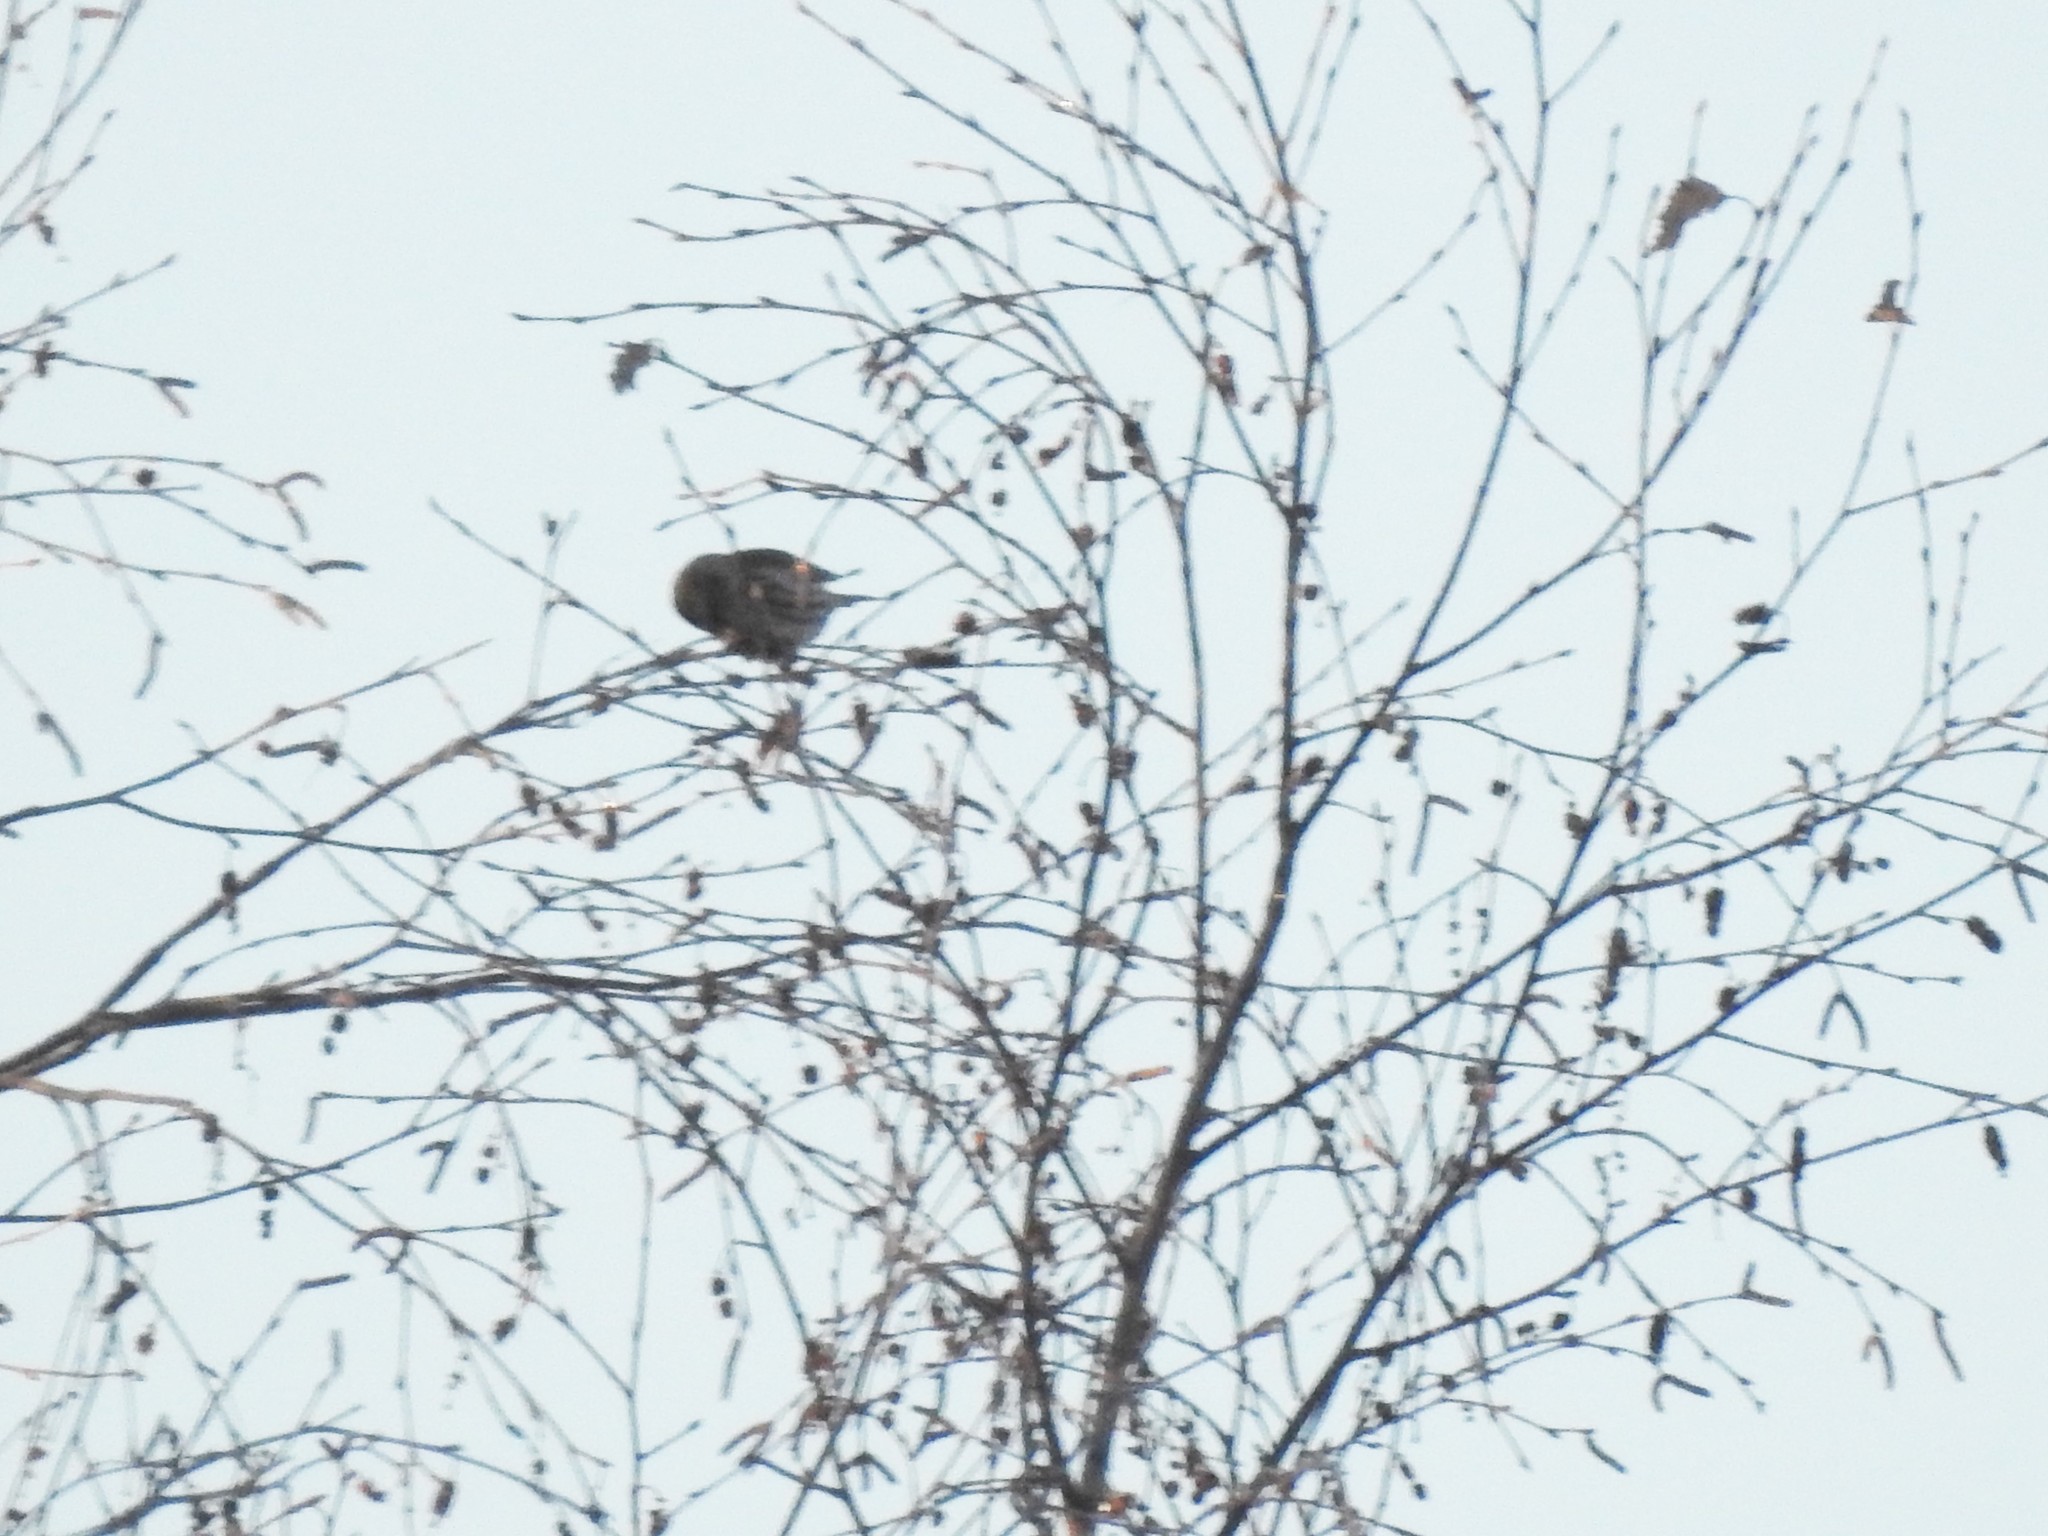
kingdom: Animalia
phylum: Chordata
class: Aves
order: Passeriformes
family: Fringillidae
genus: Acanthis
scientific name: Acanthis flammea
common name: Common redpoll
